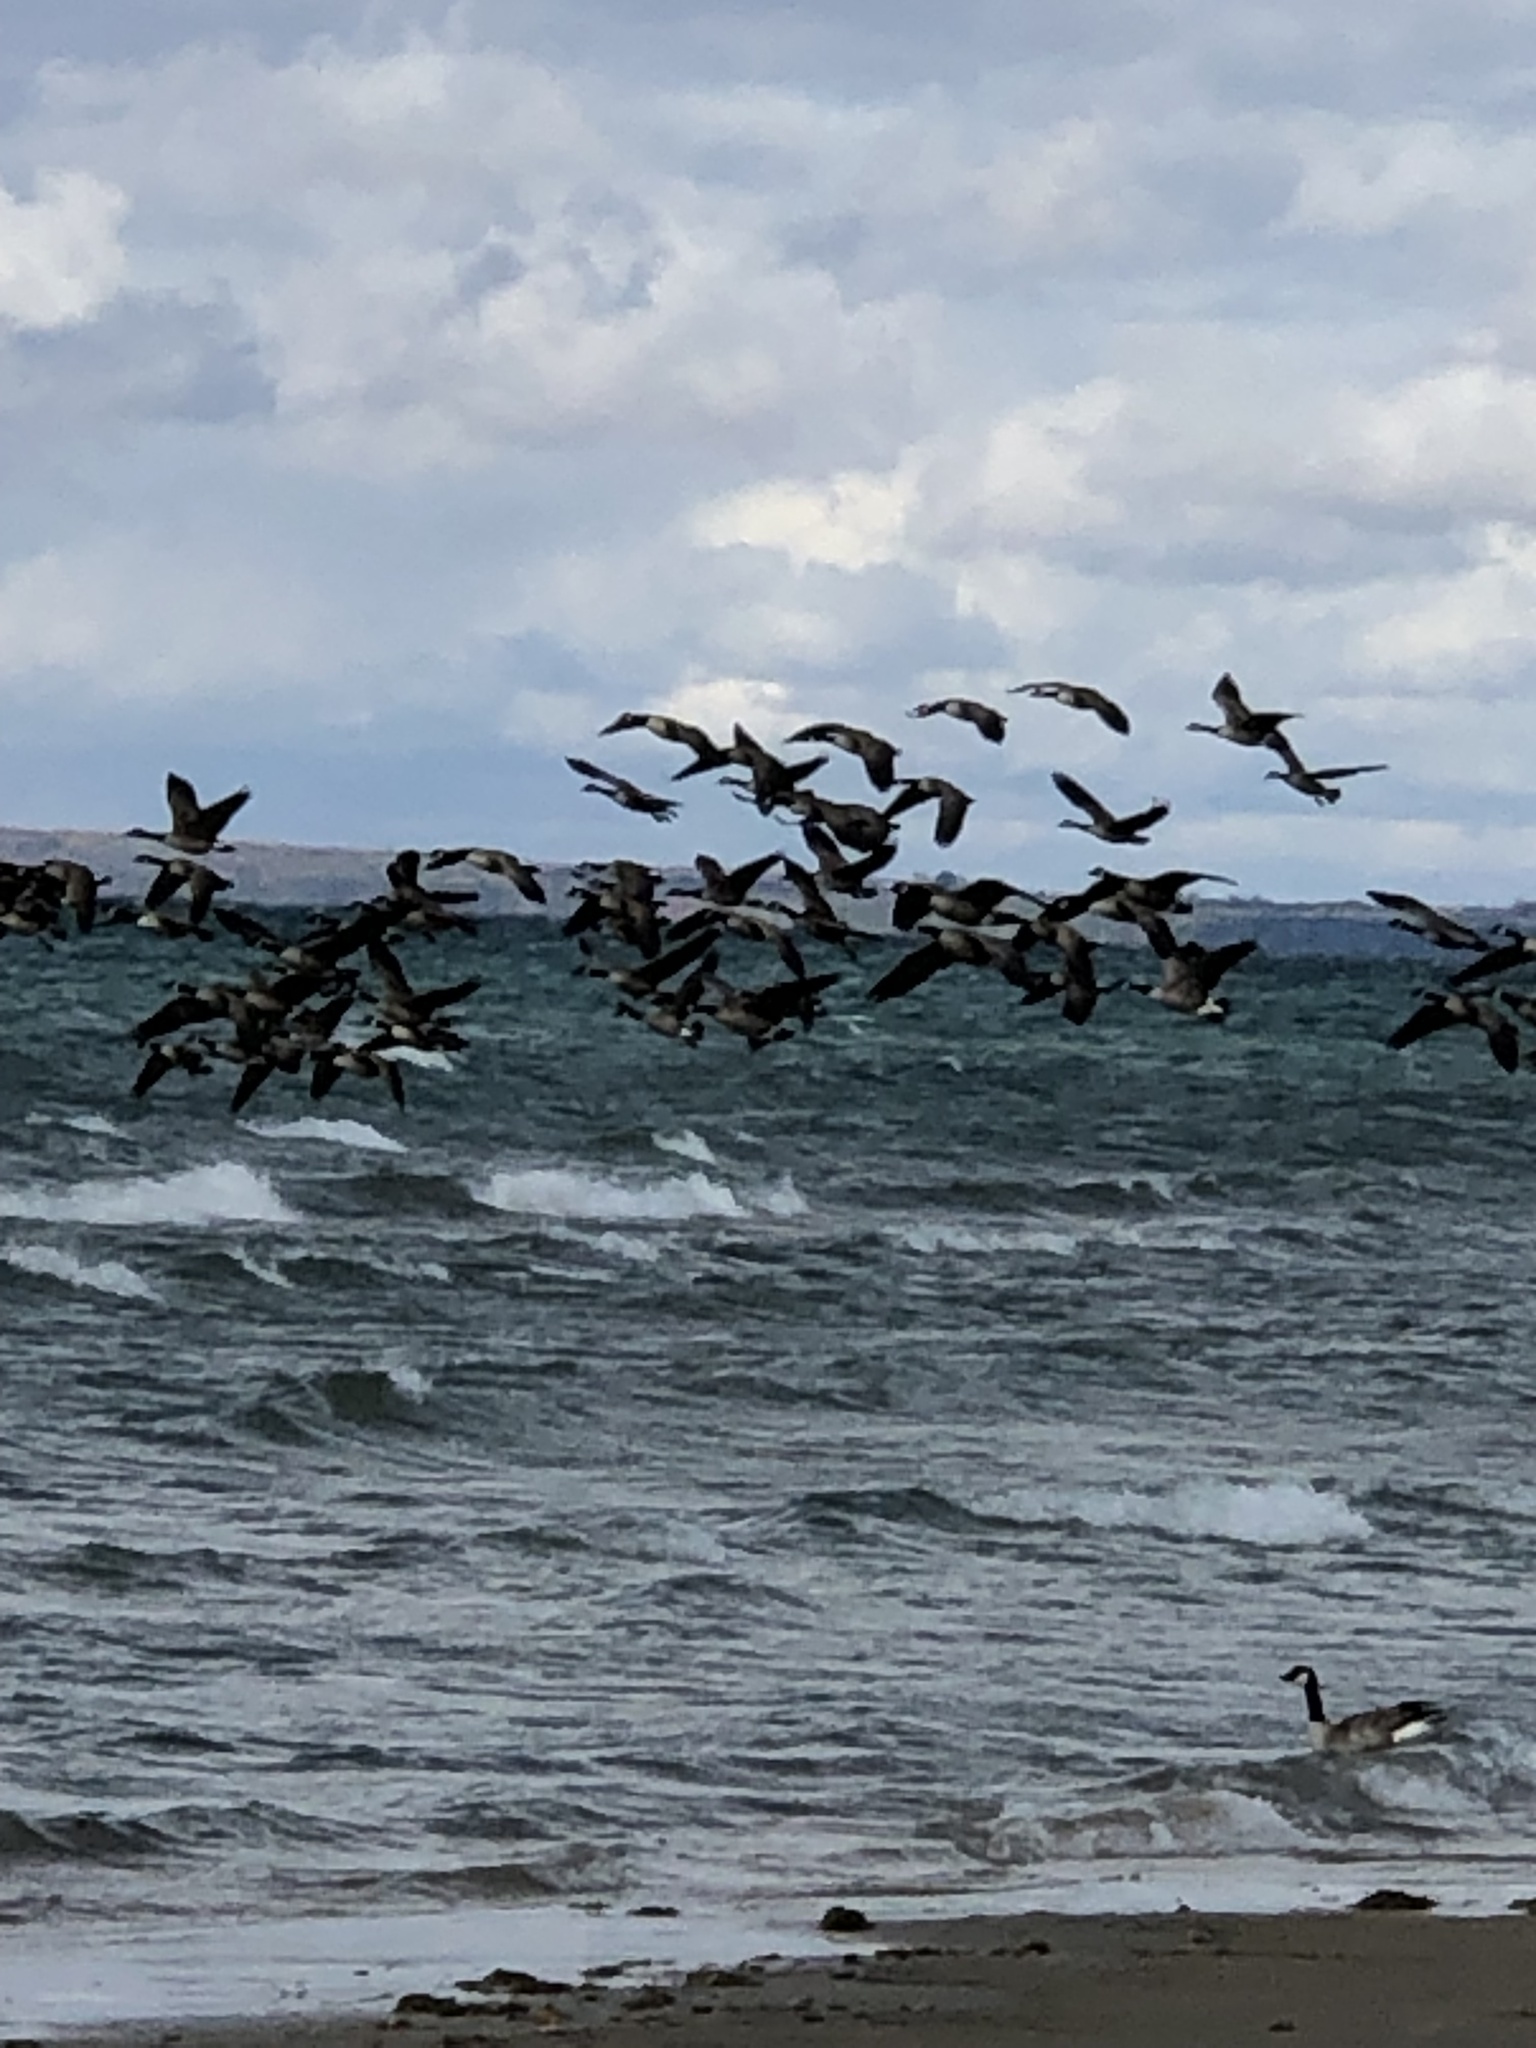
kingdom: Animalia
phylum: Chordata
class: Aves
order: Anseriformes
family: Anatidae
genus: Branta
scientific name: Branta canadensis
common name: Canada goose
